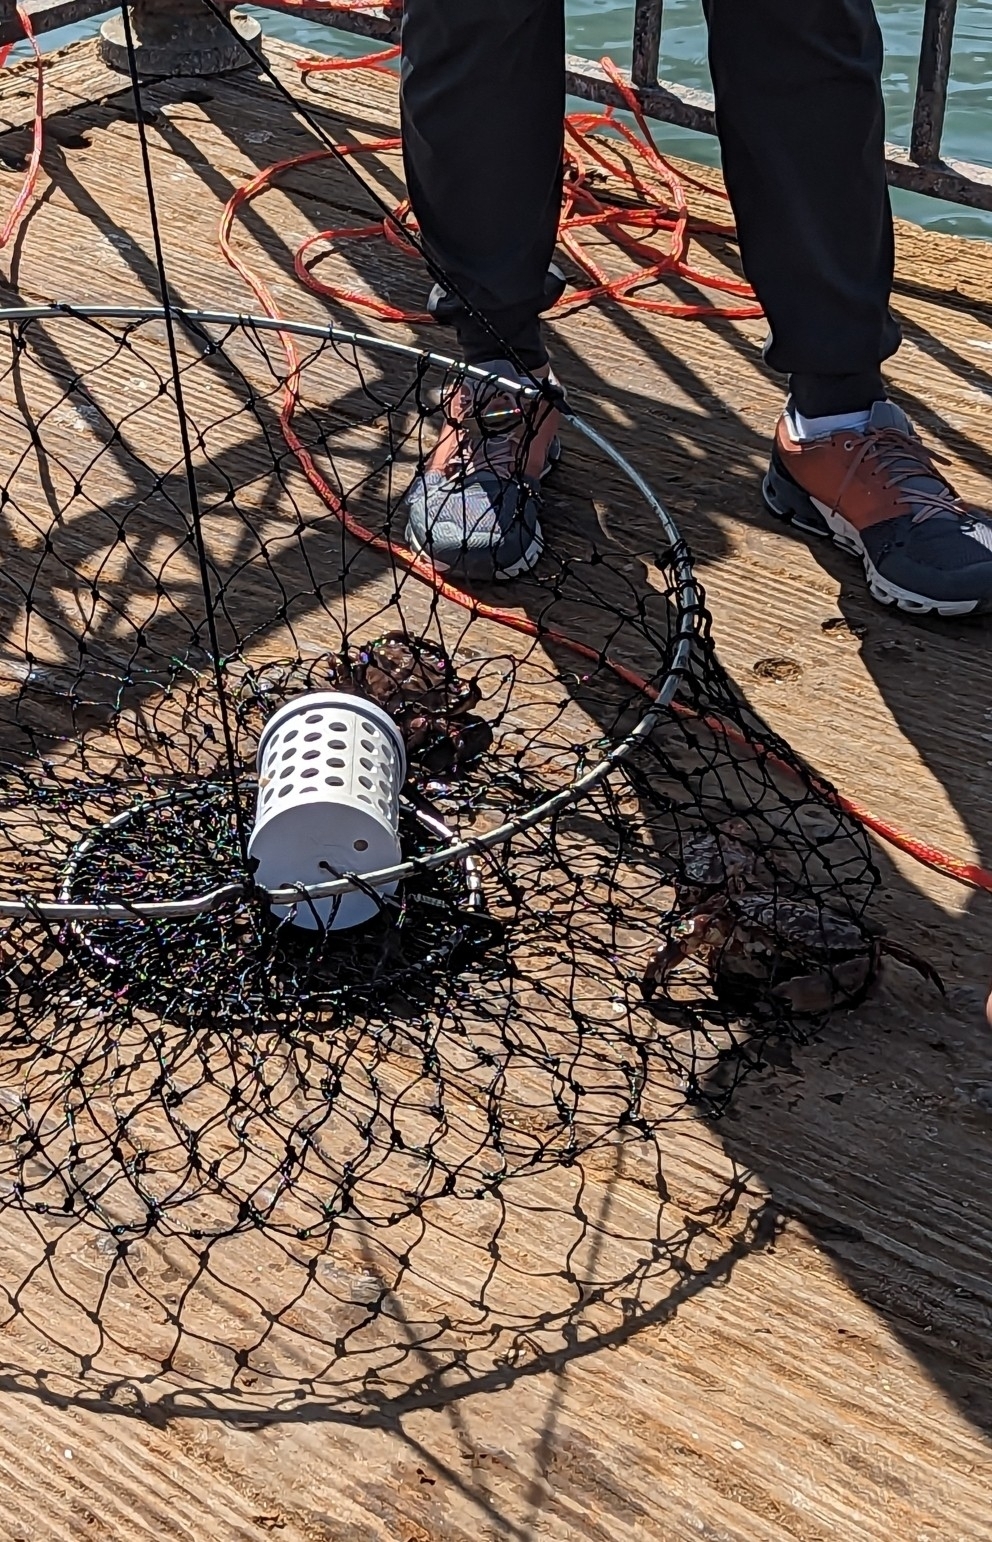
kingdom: Animalia
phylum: Arthropoda
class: Malacostraca
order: Decapoda
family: Cancridae
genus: Romaleon
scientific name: Romaleon antennarium
